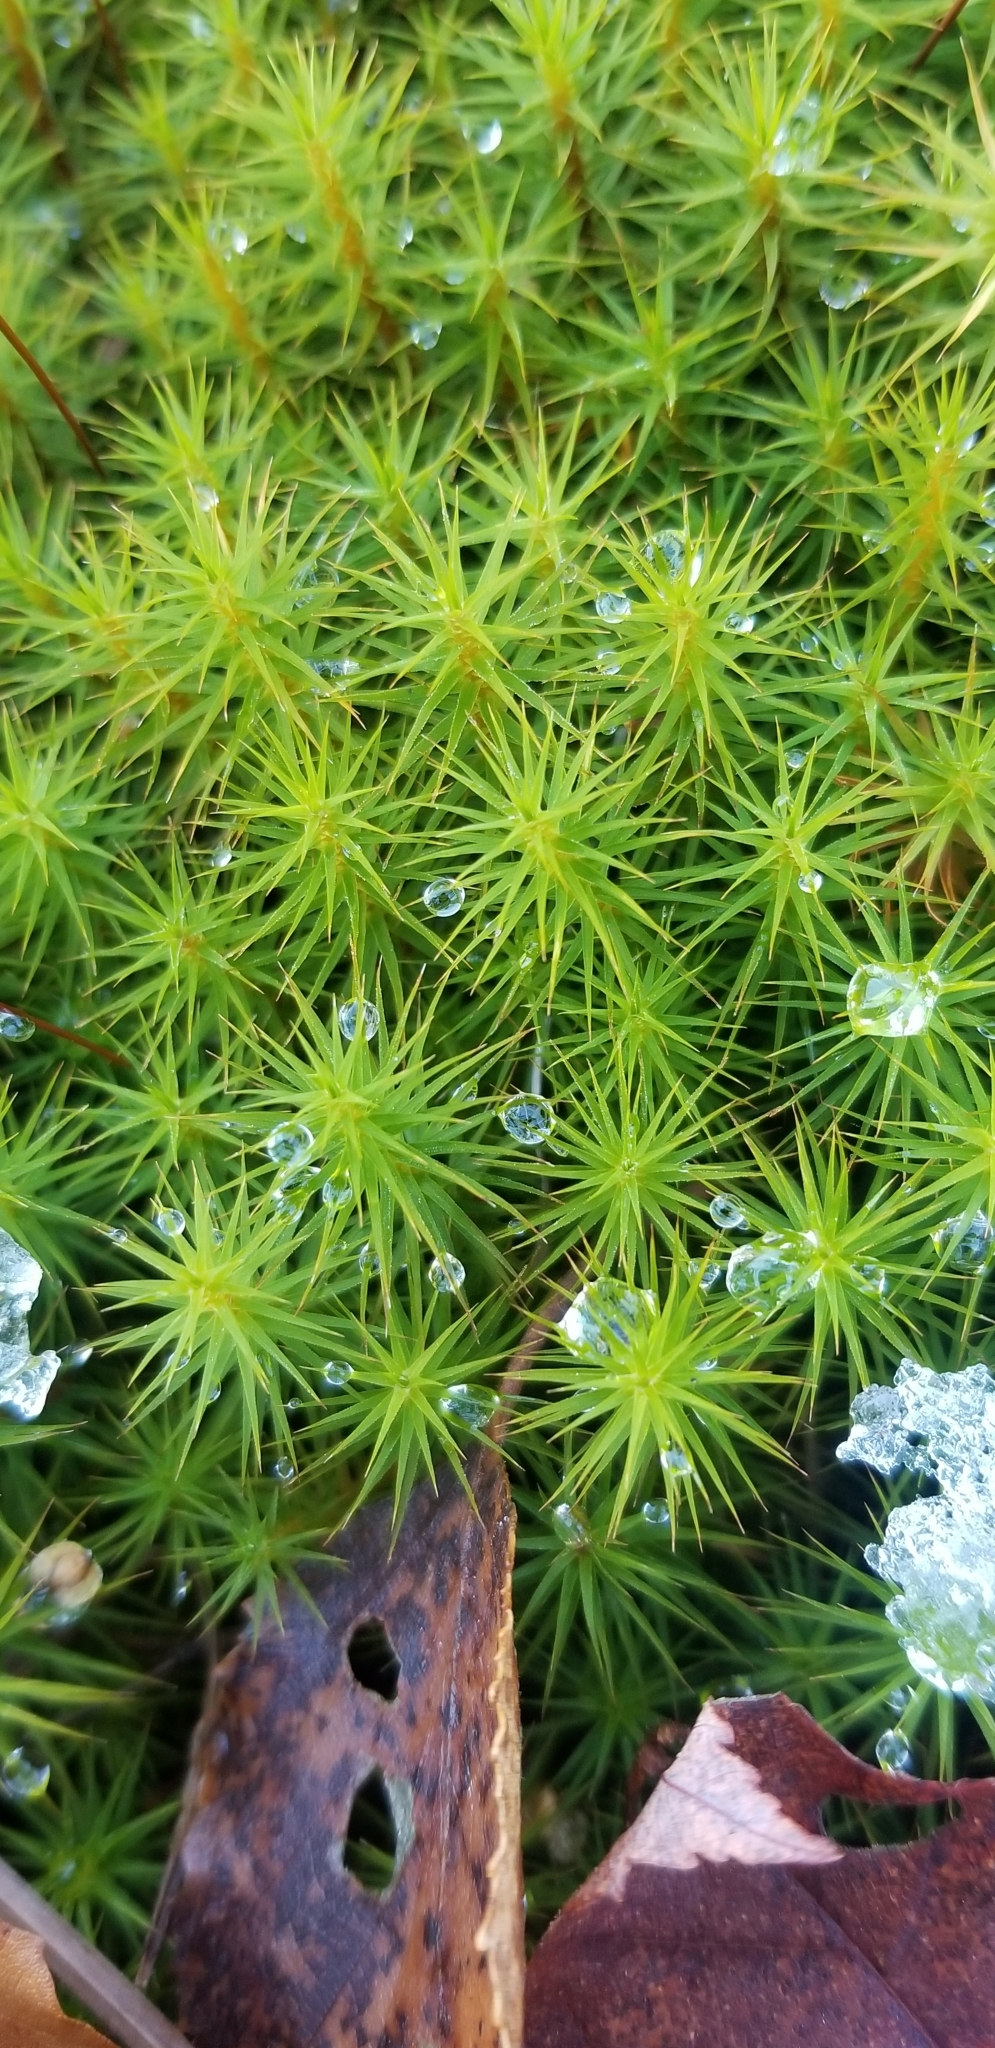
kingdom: Plantae
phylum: Bryophyta
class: Polytrichopsida
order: Polytrichales
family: Polytrichaceae
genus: Polytrichum
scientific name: Polytrichum commune
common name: Common haircap
